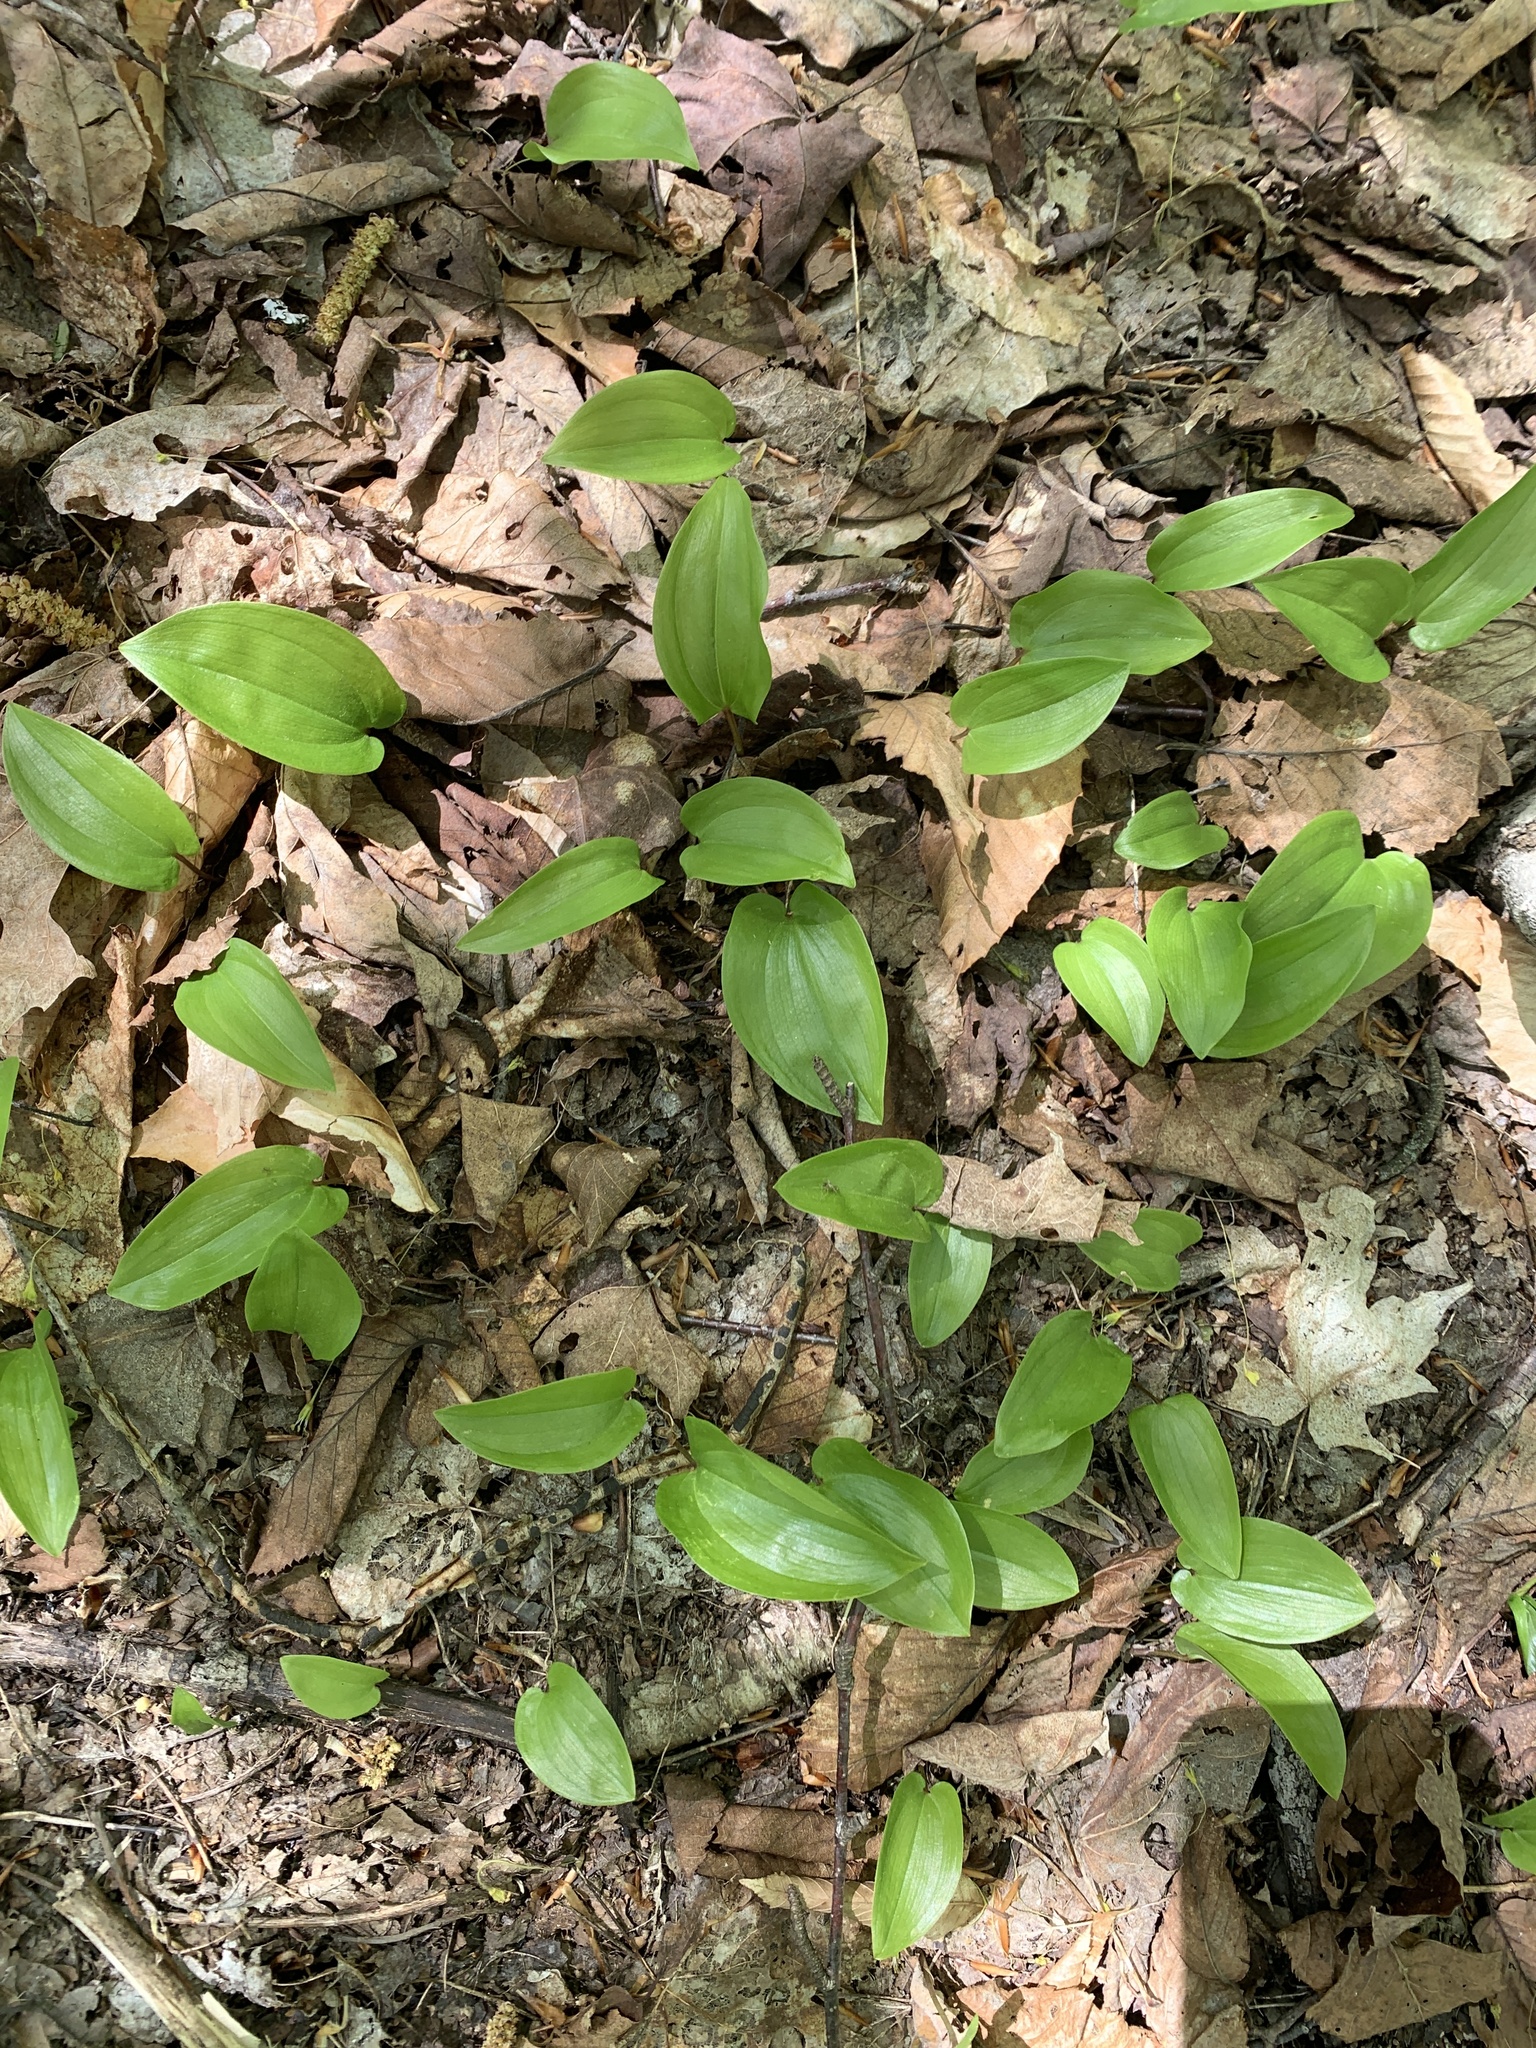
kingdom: Plantae
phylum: Tracheophyta
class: Liliopsida
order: Asparagales
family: Asparagaceae
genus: Maianthemum
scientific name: Maianthemum canadense
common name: False lily-of-the-valley
